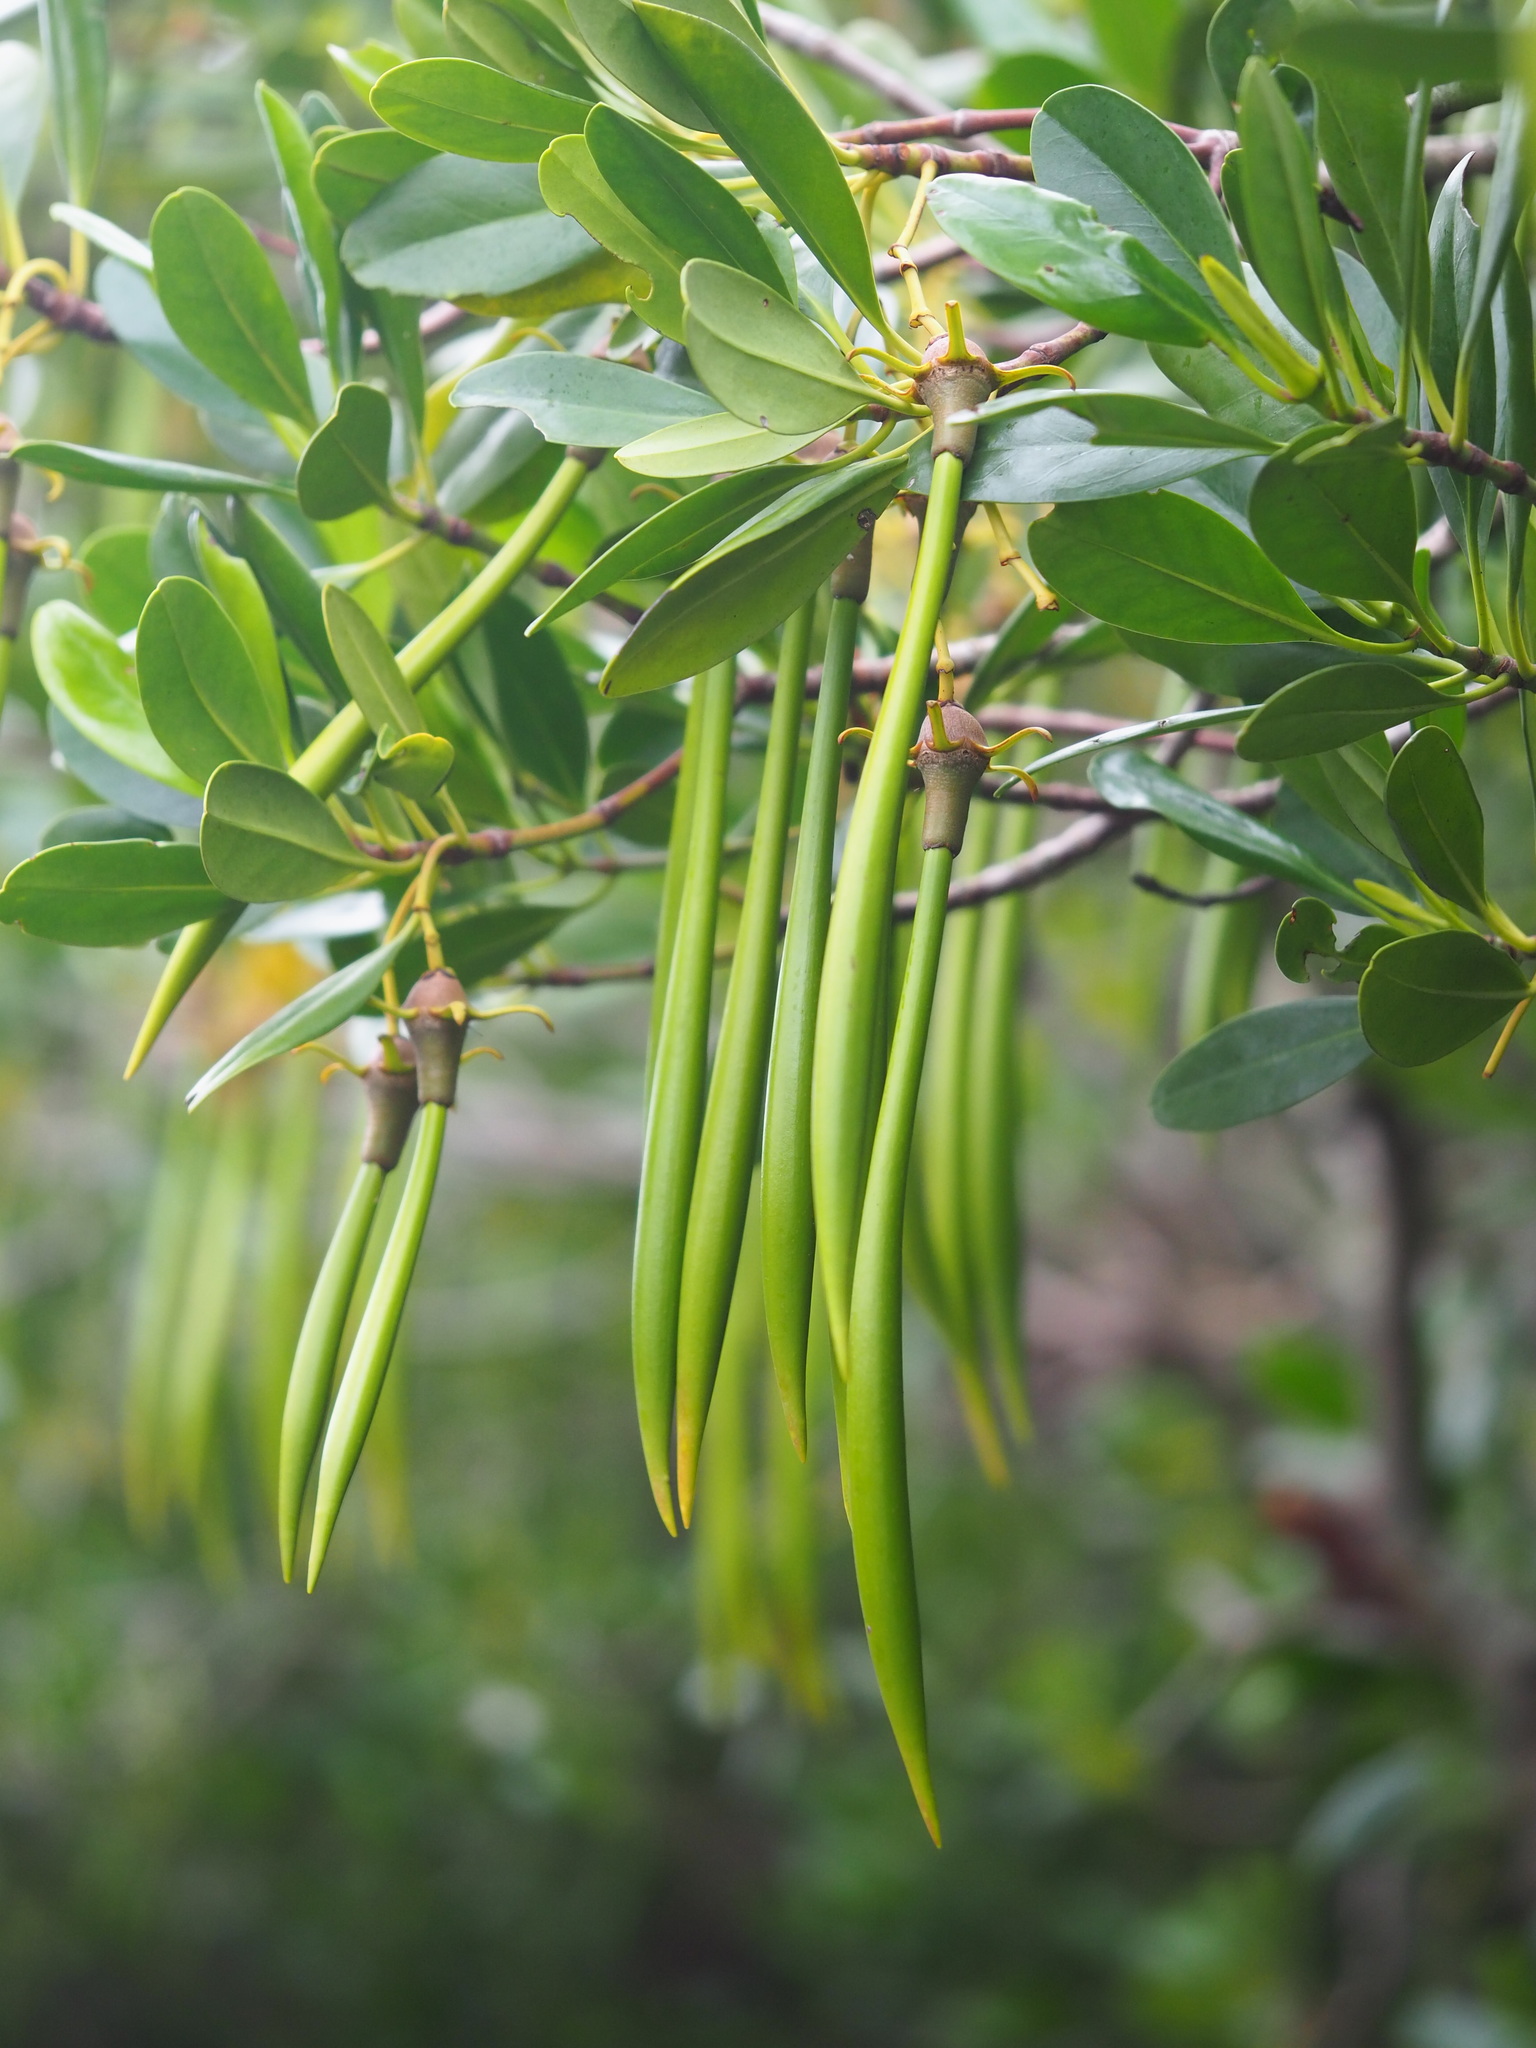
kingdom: Plantae
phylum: Tracheophyta
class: Magnoliopsida
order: Malpighiales
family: Rhizophoraceae
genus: Kandelia
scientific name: Kandelia obovata
